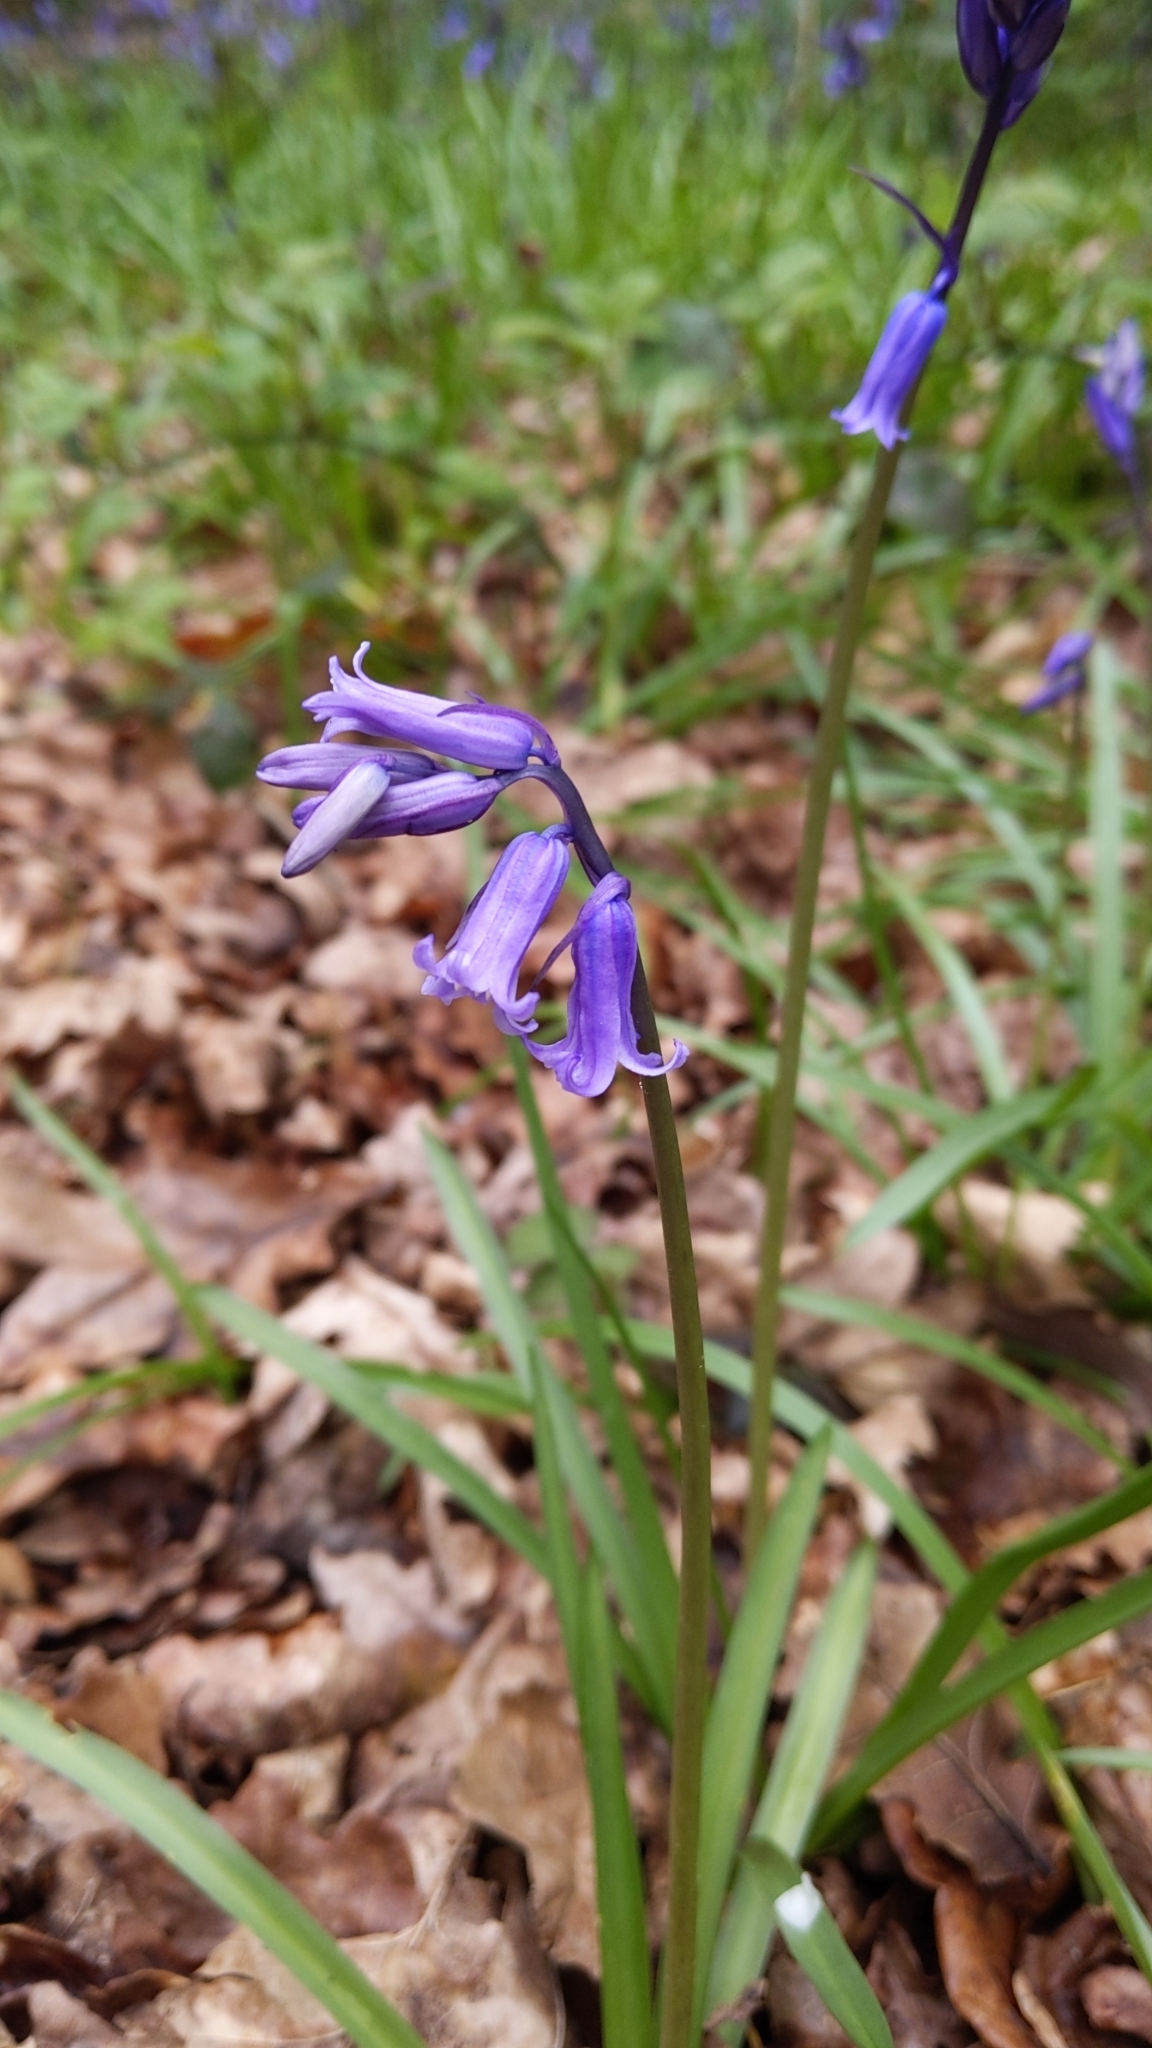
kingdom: Plantae
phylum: Tracheophyta
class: Liliopsida
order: Asparagales
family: Asparagaceae
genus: Hyacinthoides
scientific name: Hyacinthoides non-scripta
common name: Bluebell
